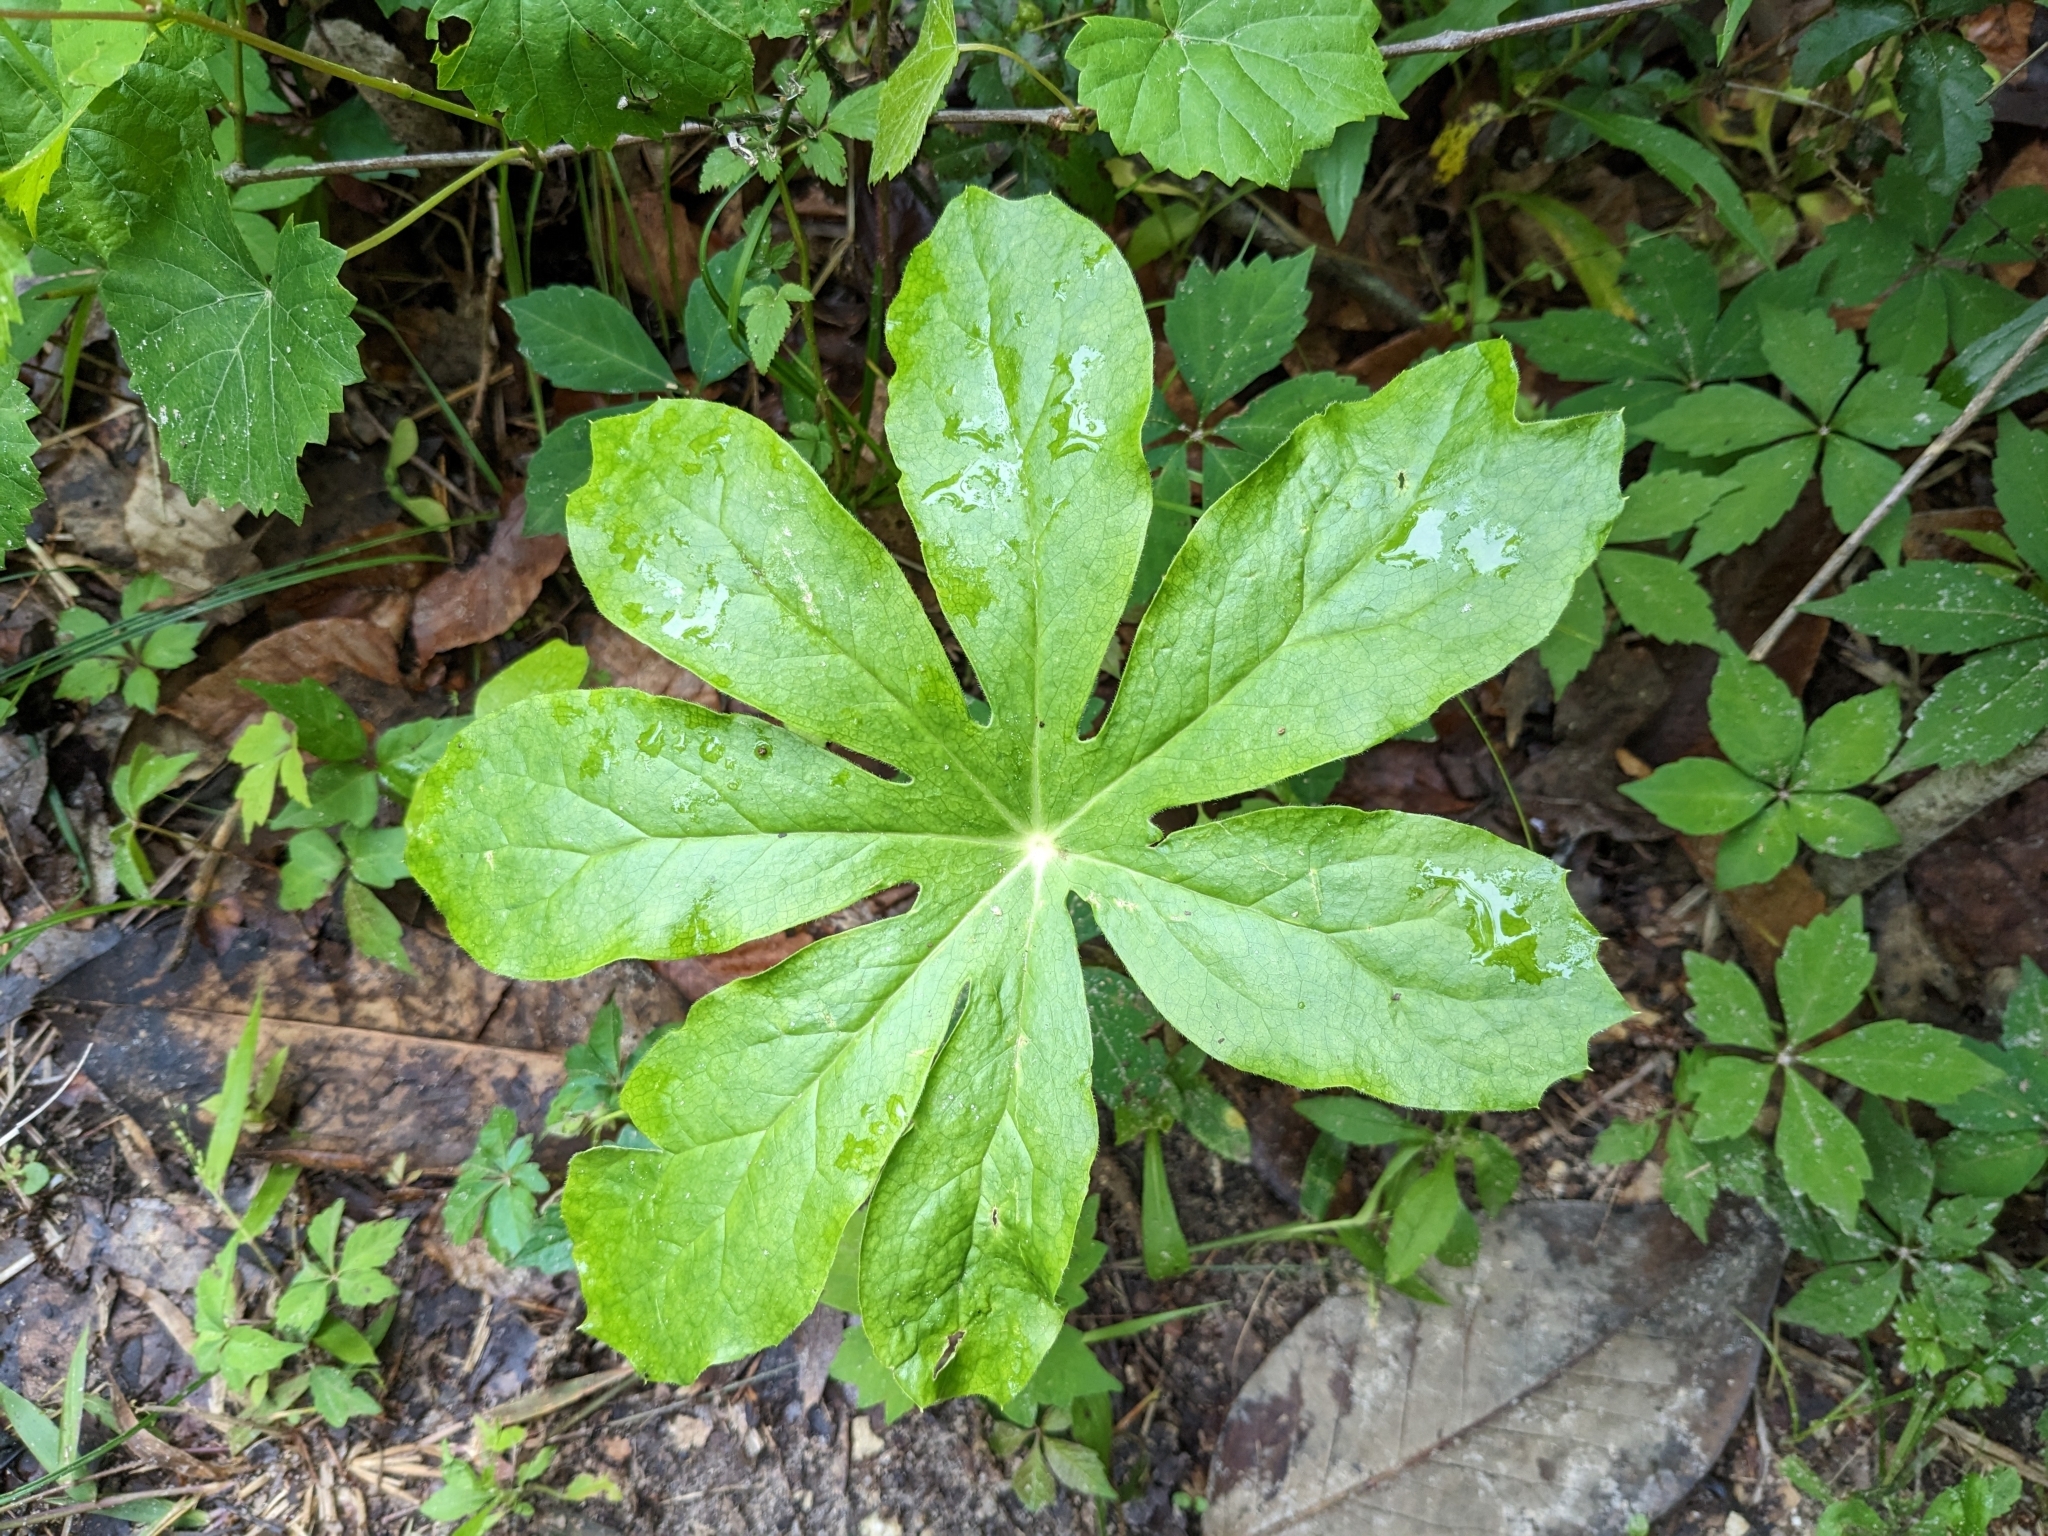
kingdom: Plantae
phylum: Tracheophyta
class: Magnoliopsida
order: Ranunculales
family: Berberidaceae
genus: Podophyllum
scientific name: Podophyllum peltatum
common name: Wild mandrake
